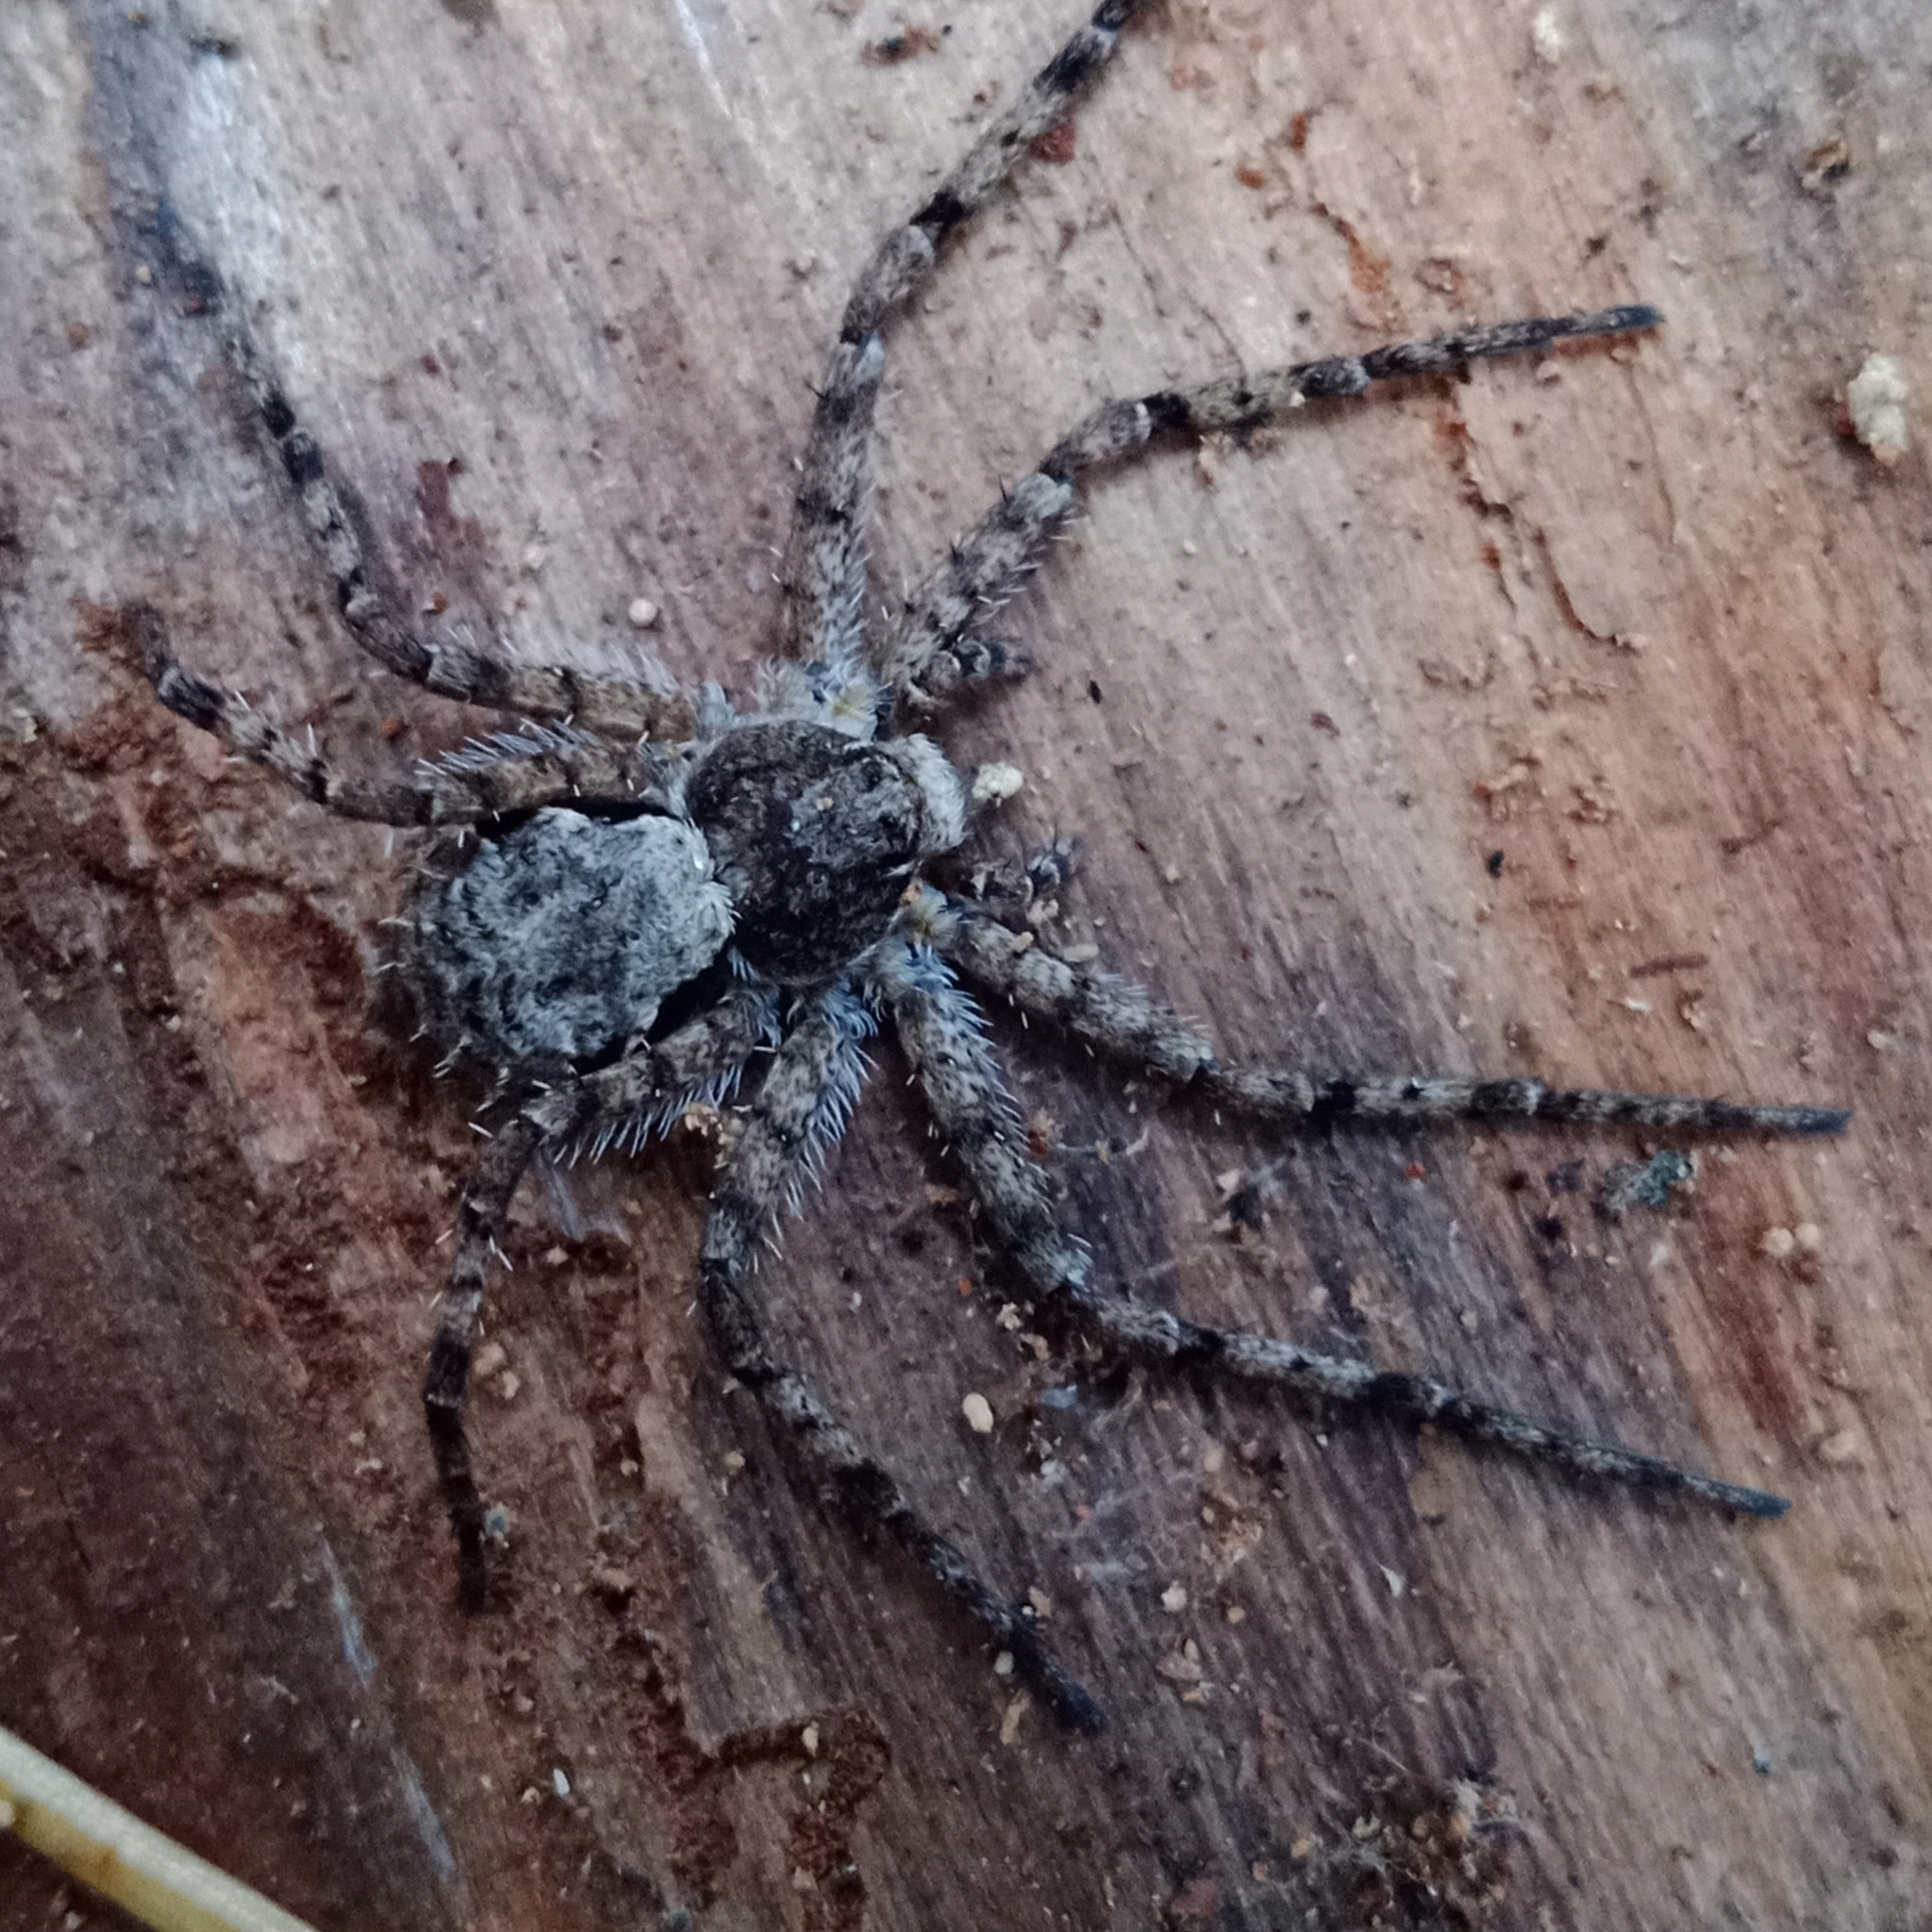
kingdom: Animalia
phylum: Arthropoda
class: Arachnida
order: Araneae
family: Philodromidae
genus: Philodromus
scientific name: Philodromus margaritatus
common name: Lichen running-spider
